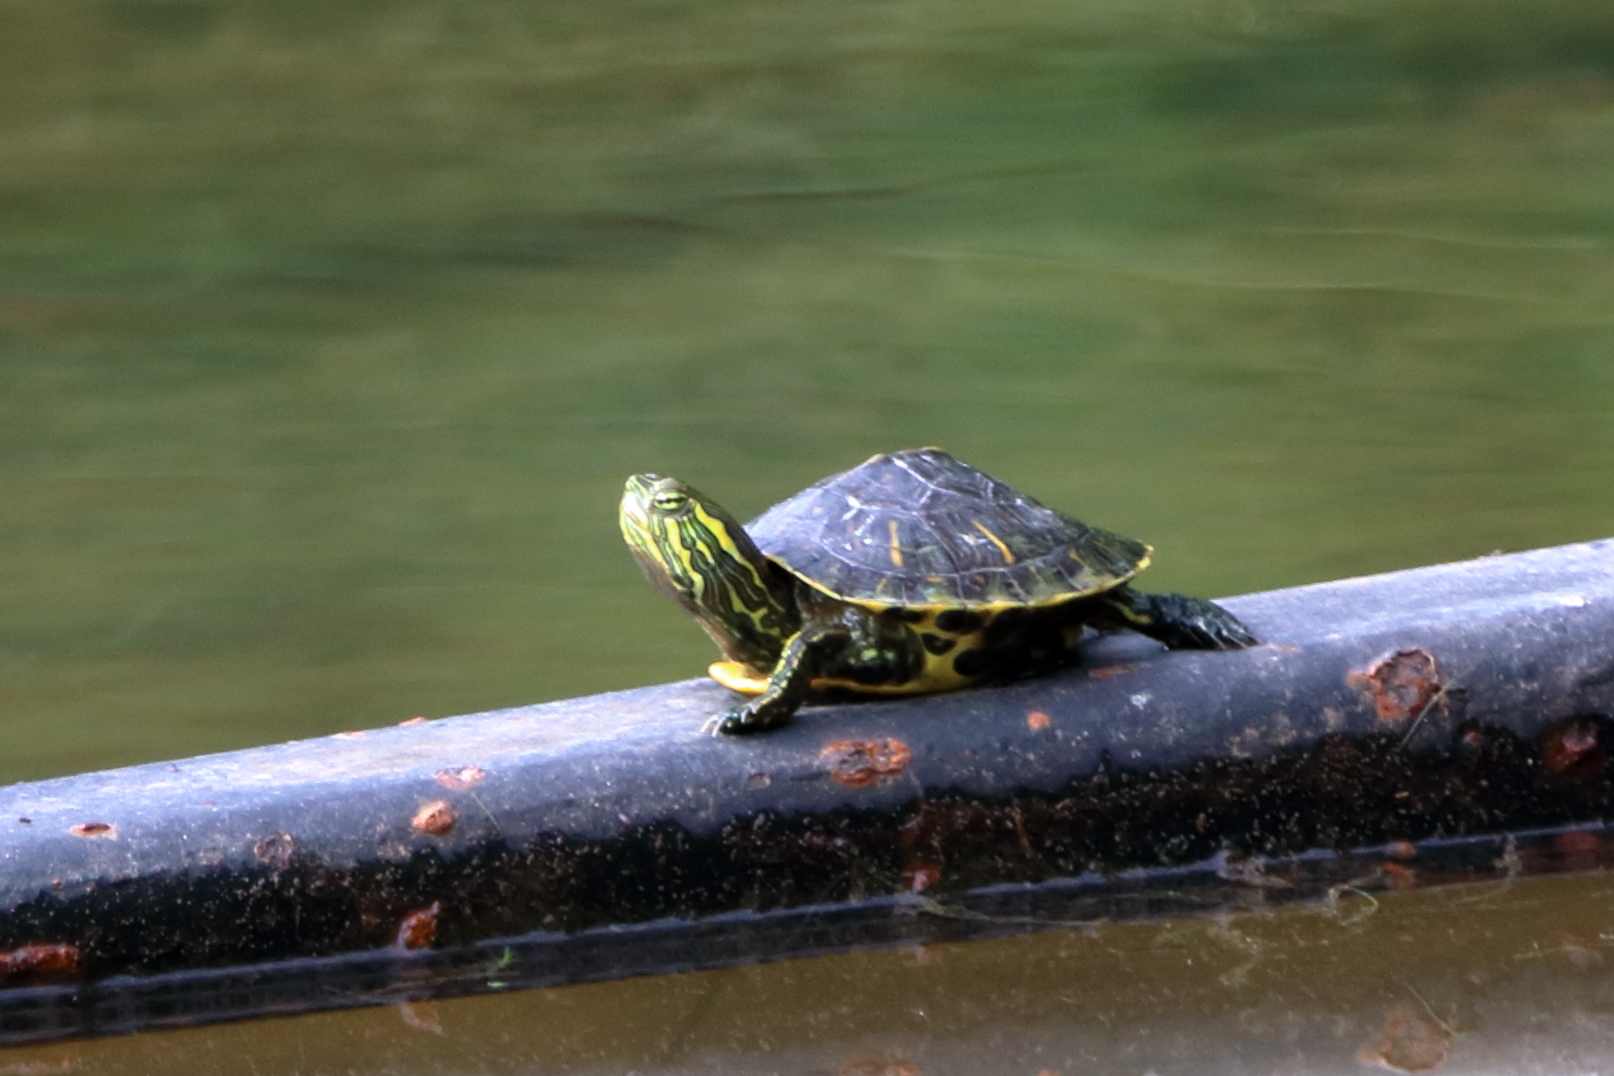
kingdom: Animalia
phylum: Chordata
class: Testudines
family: Emydidae
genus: Pseudemys
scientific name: Pseudemys concinna
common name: Eastern river cooter
